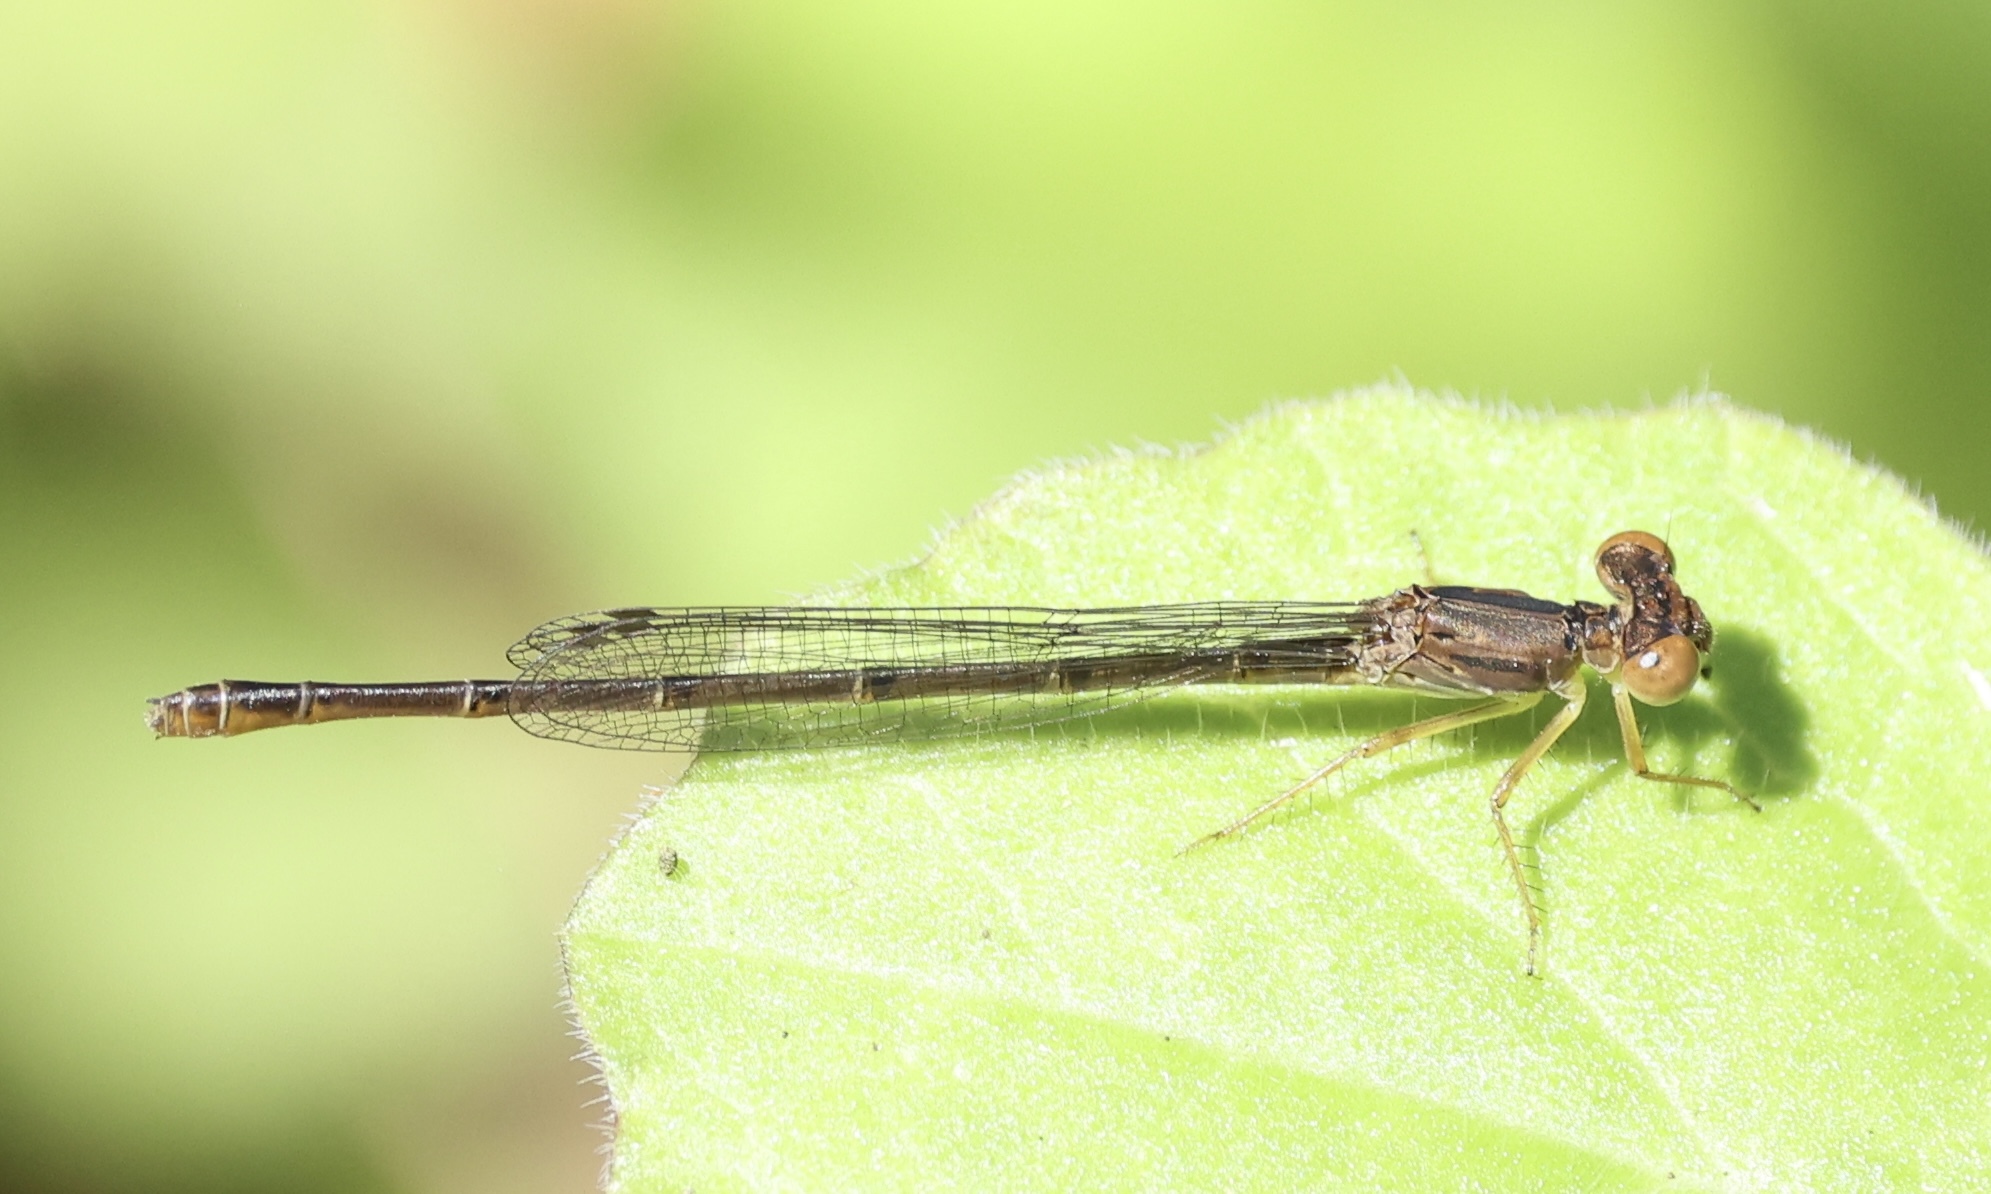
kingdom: Animalia
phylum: Arthropoda
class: Insecta
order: Odonata
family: Coenagrionidae
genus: Telebasis
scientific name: Telebasis byersi
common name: Duckweed firetail
